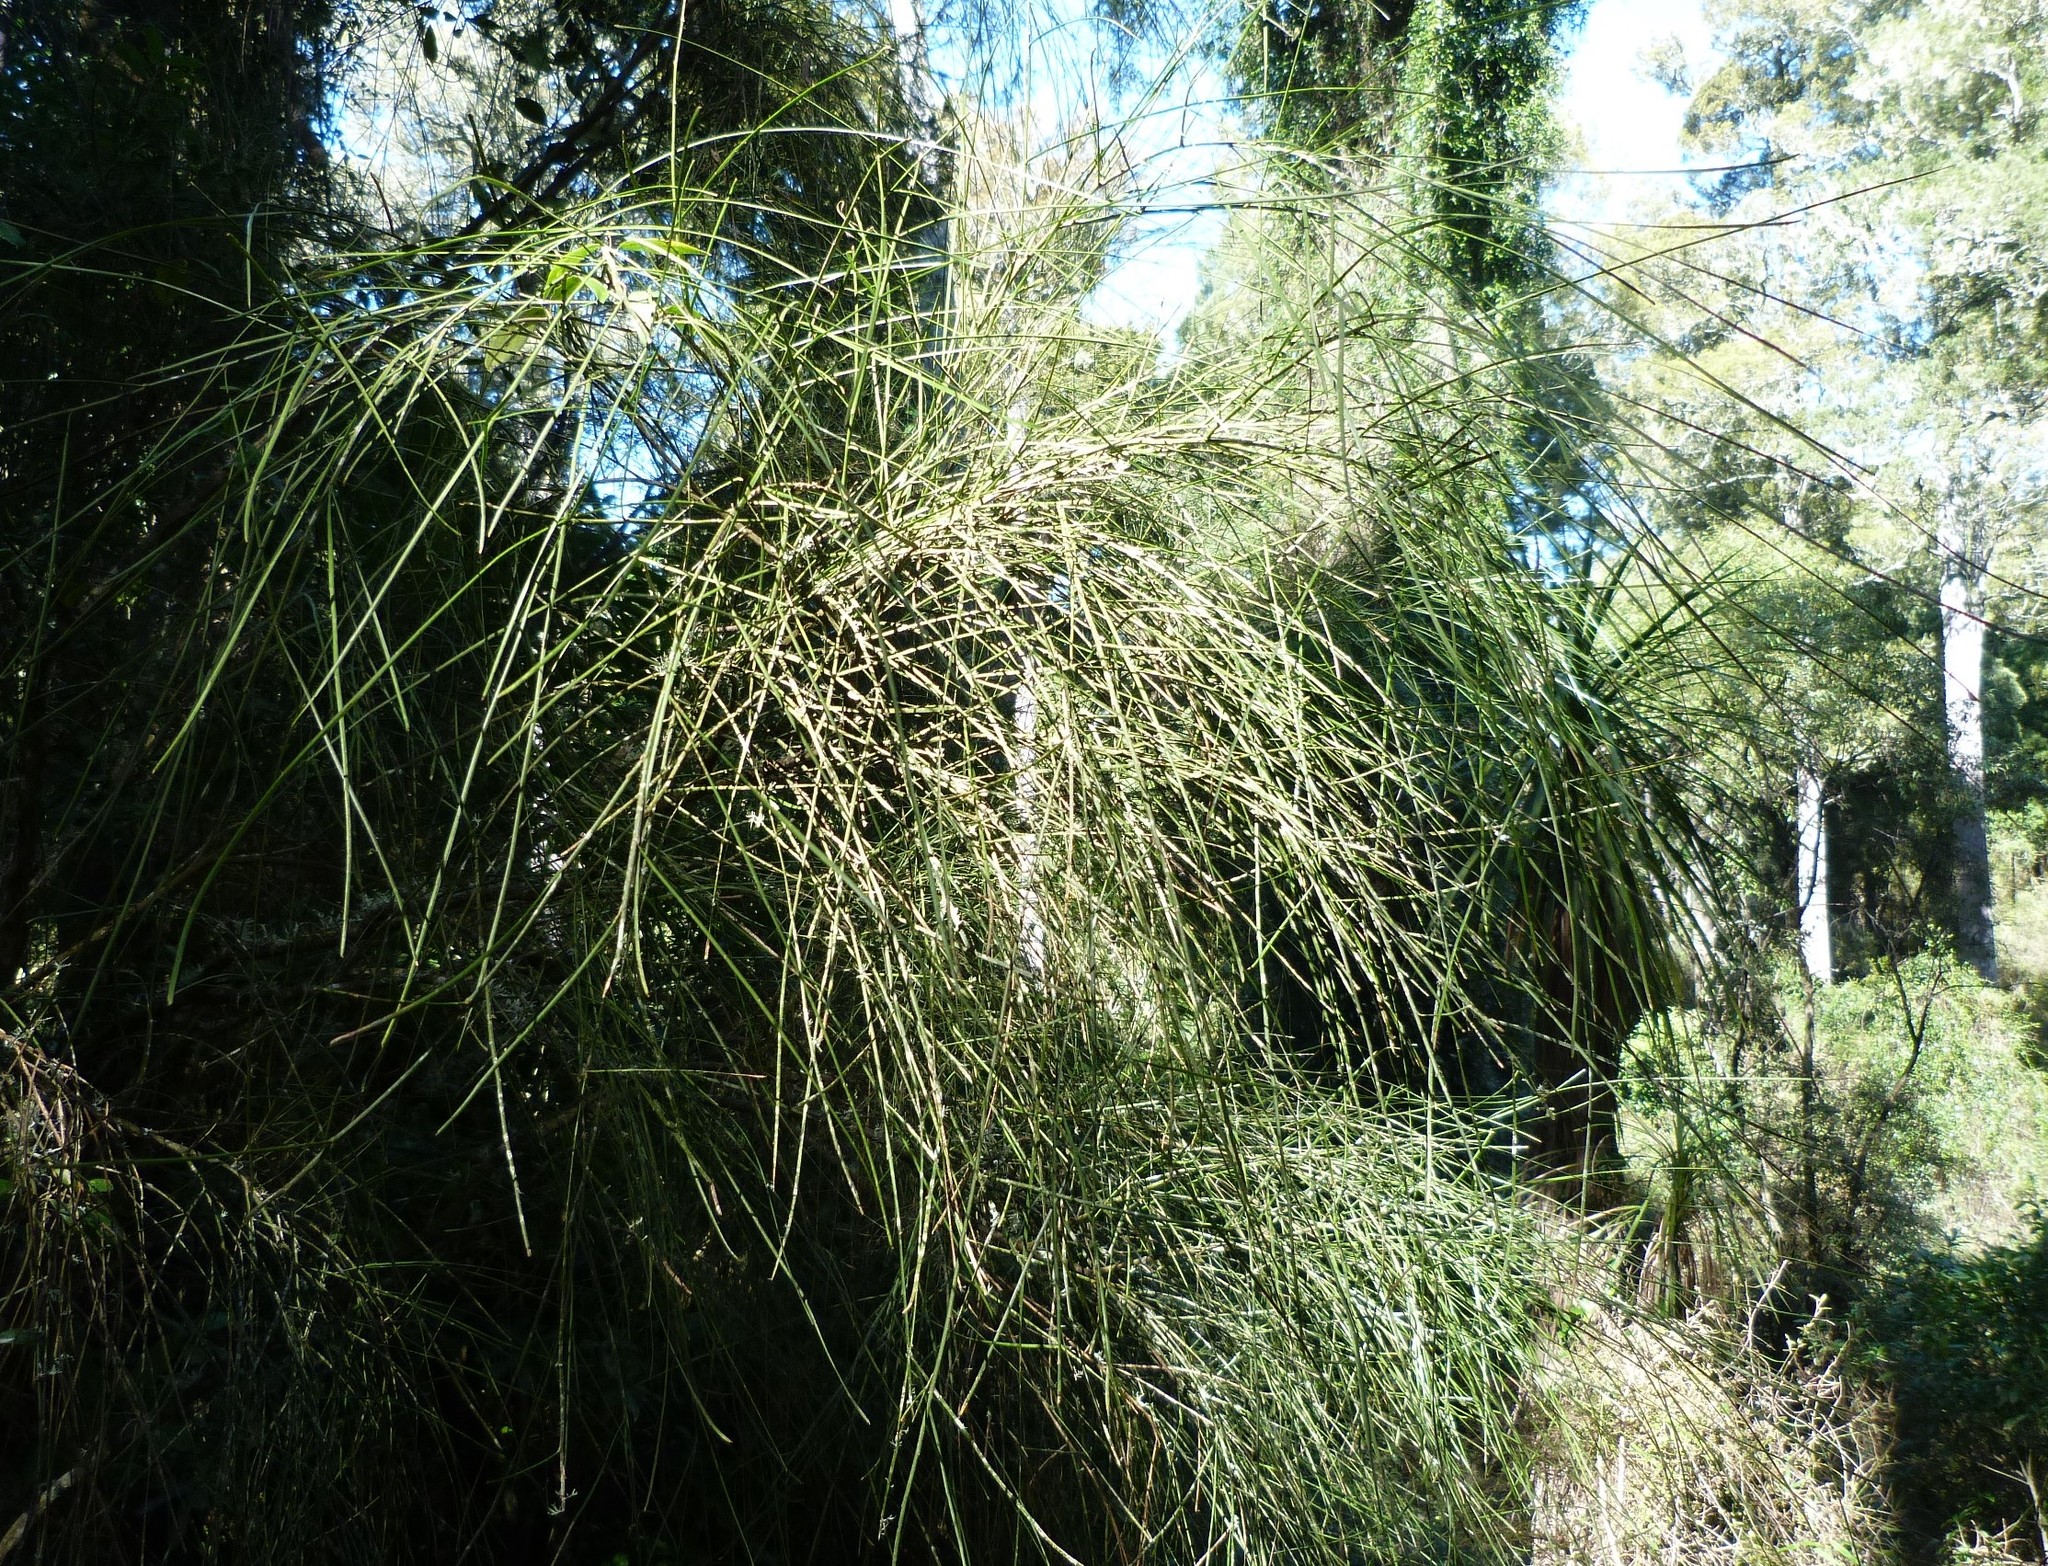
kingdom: Plantae
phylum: Tracheophyta
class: Magnoliopsida
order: Fabales
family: Fabaceae
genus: Carmichaelia
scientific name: Carmichaelia australis
